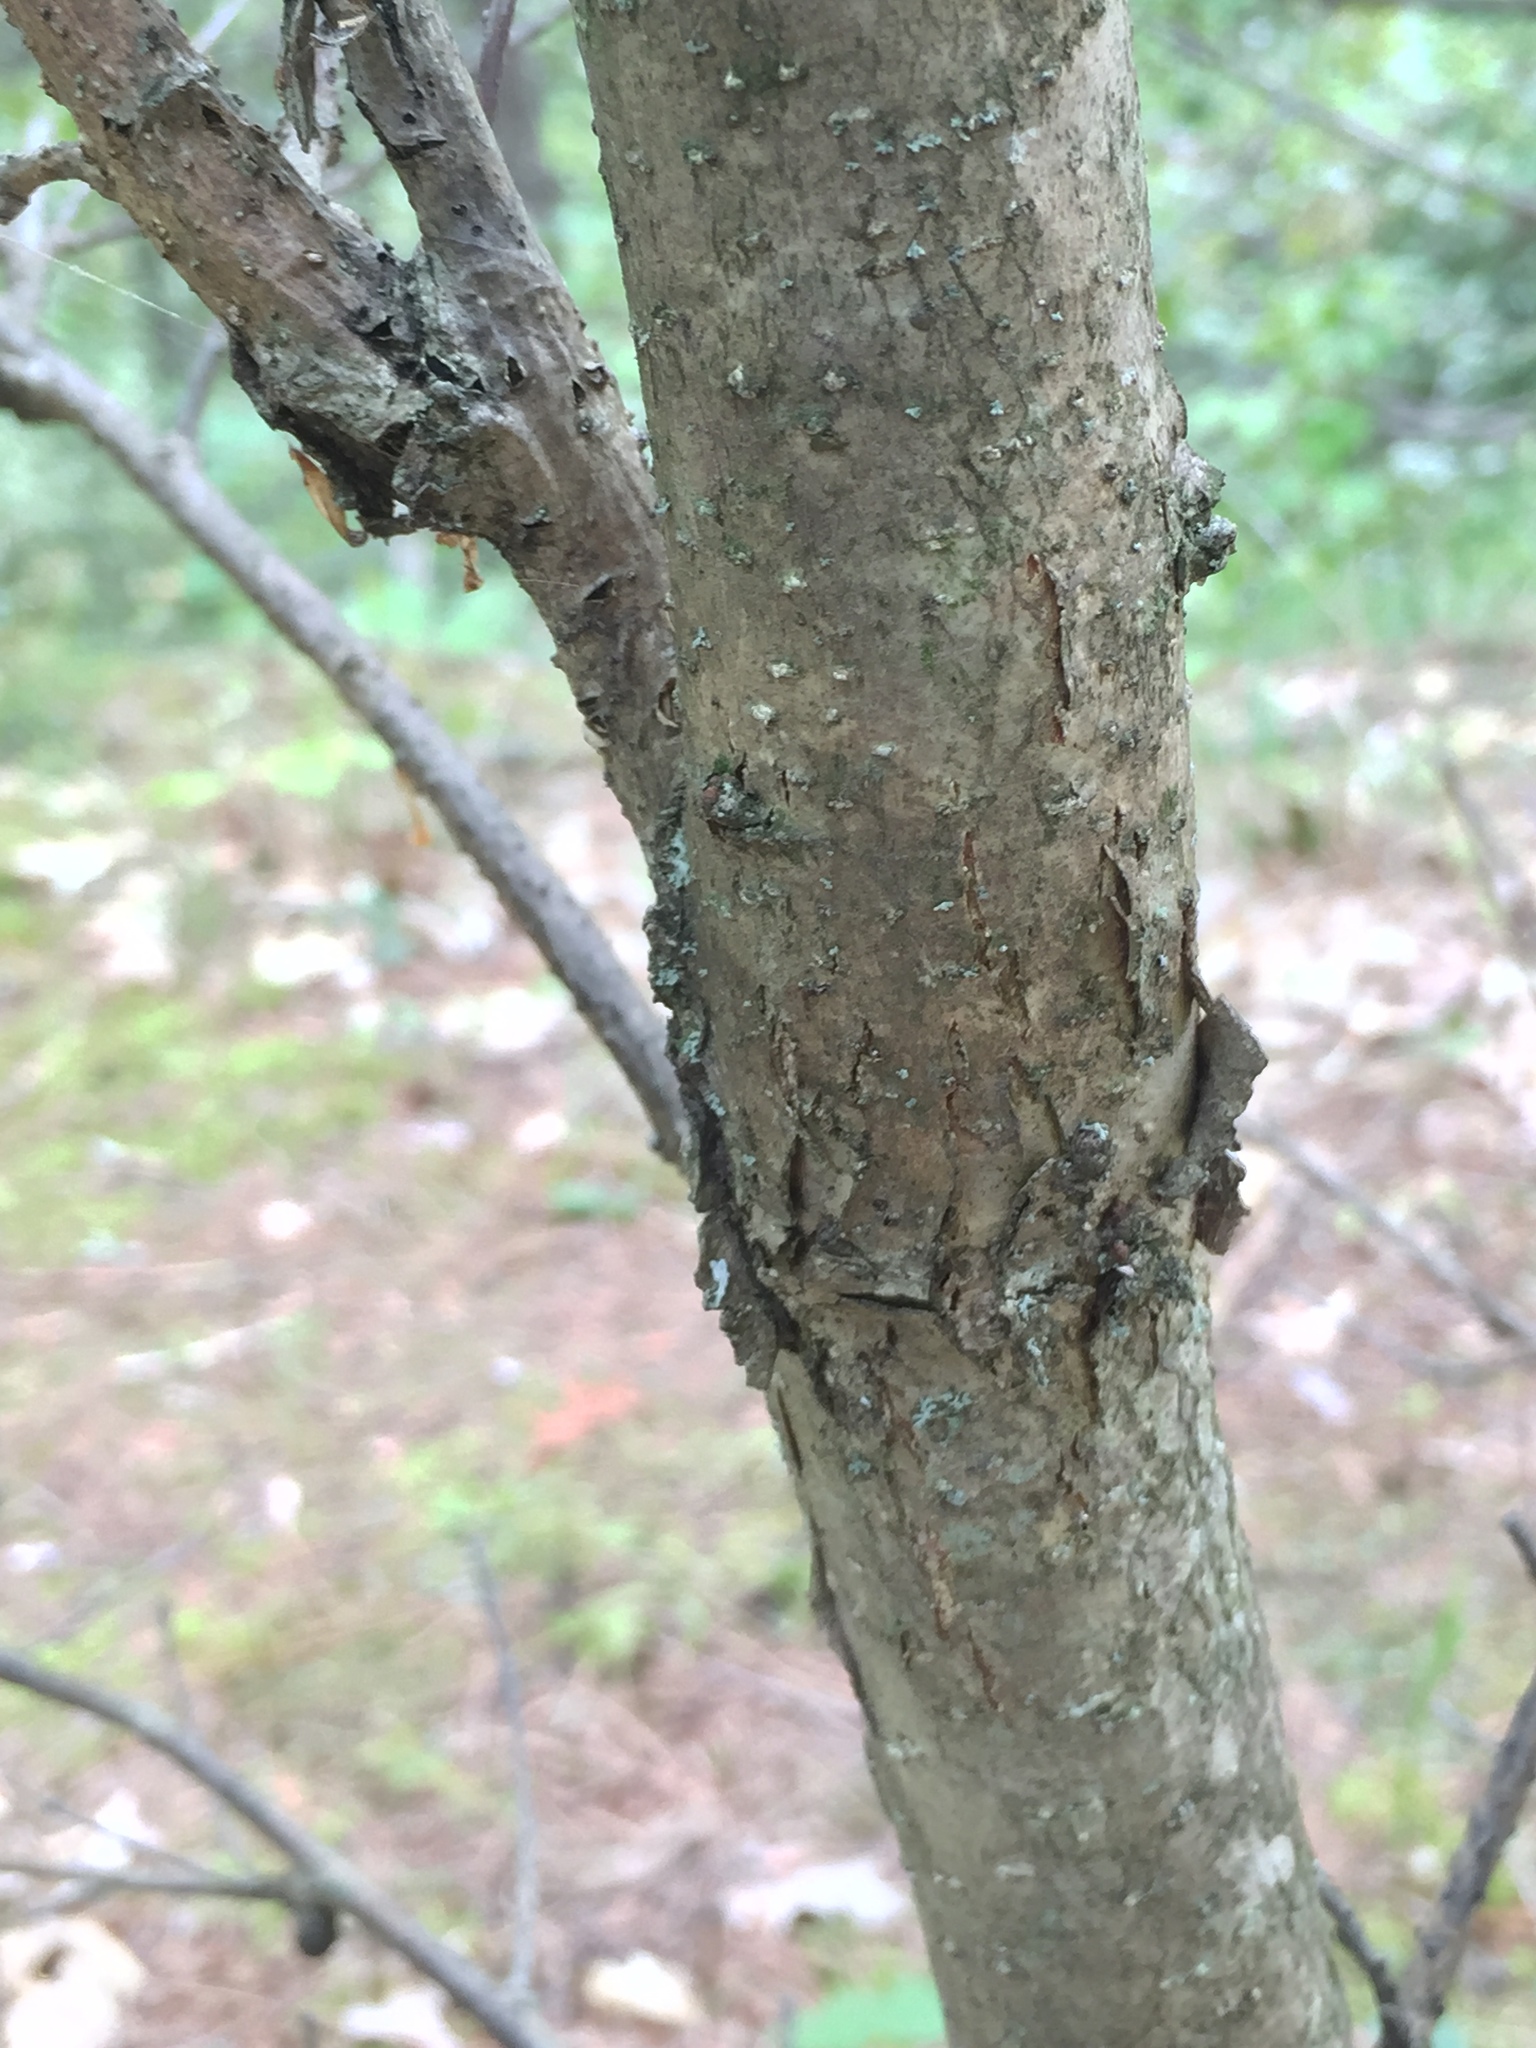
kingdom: Plantae
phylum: Tracheophyta
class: Magnoliopsida
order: Fagales
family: Fagaceae
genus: Quercus
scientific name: Quercus alba
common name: White oak
